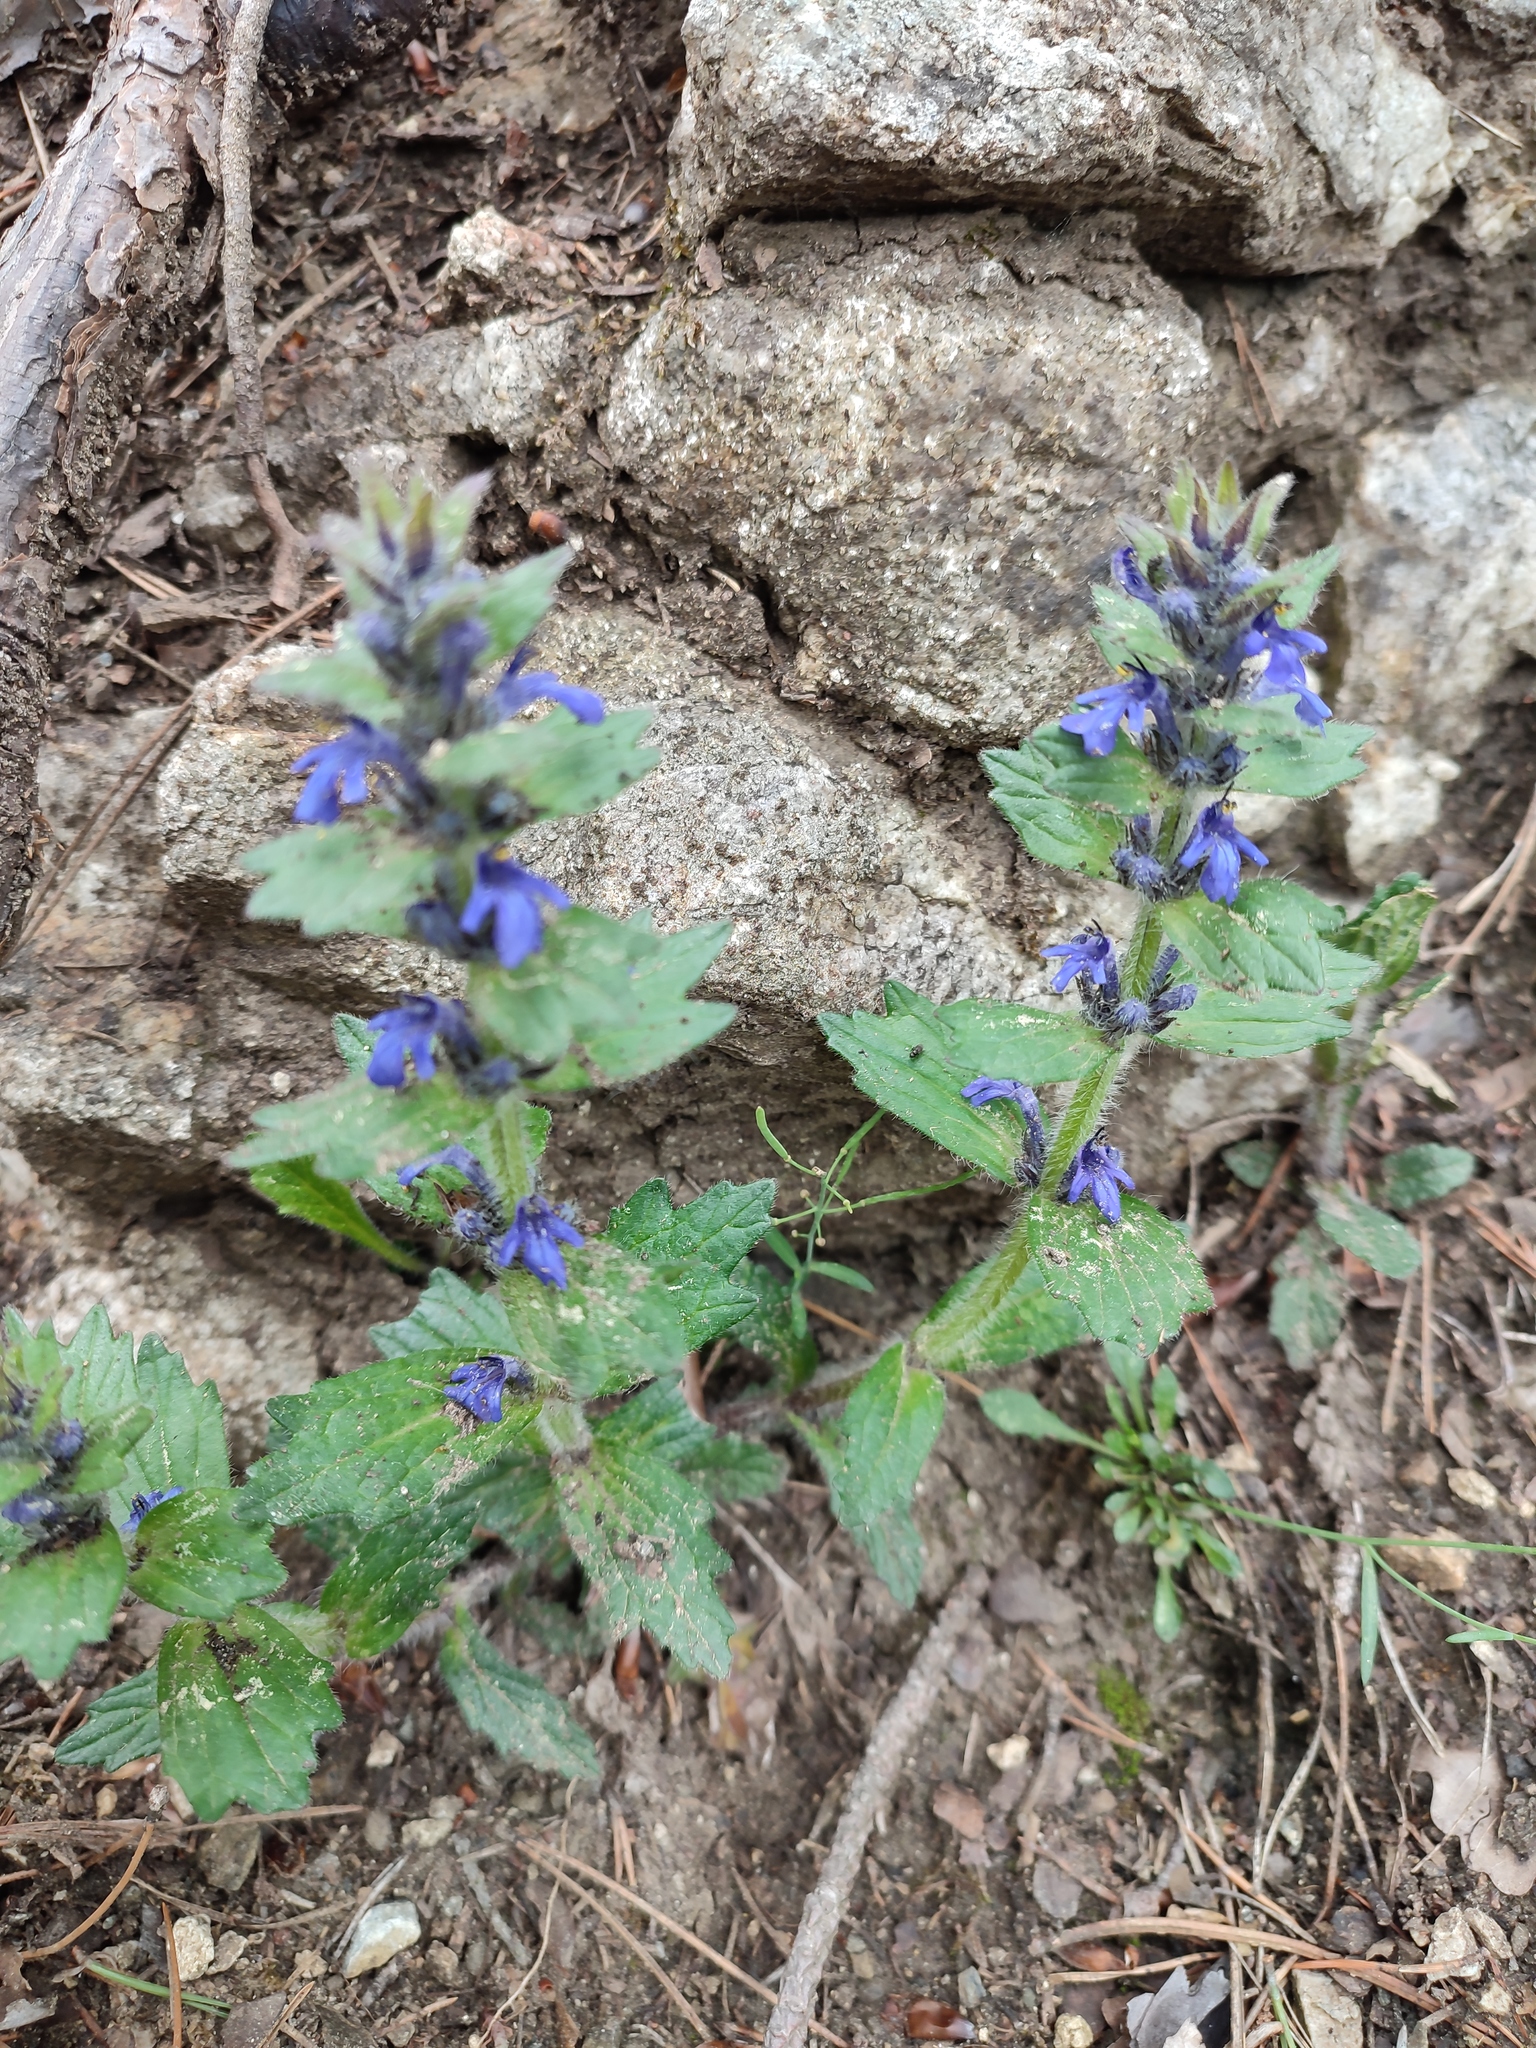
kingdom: Plantae
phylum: Tracheophyta
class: Magnoliopsida
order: Lamiales
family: Lamiaceae
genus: Ajuga
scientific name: Ajuga genevensis
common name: Blue bugle
